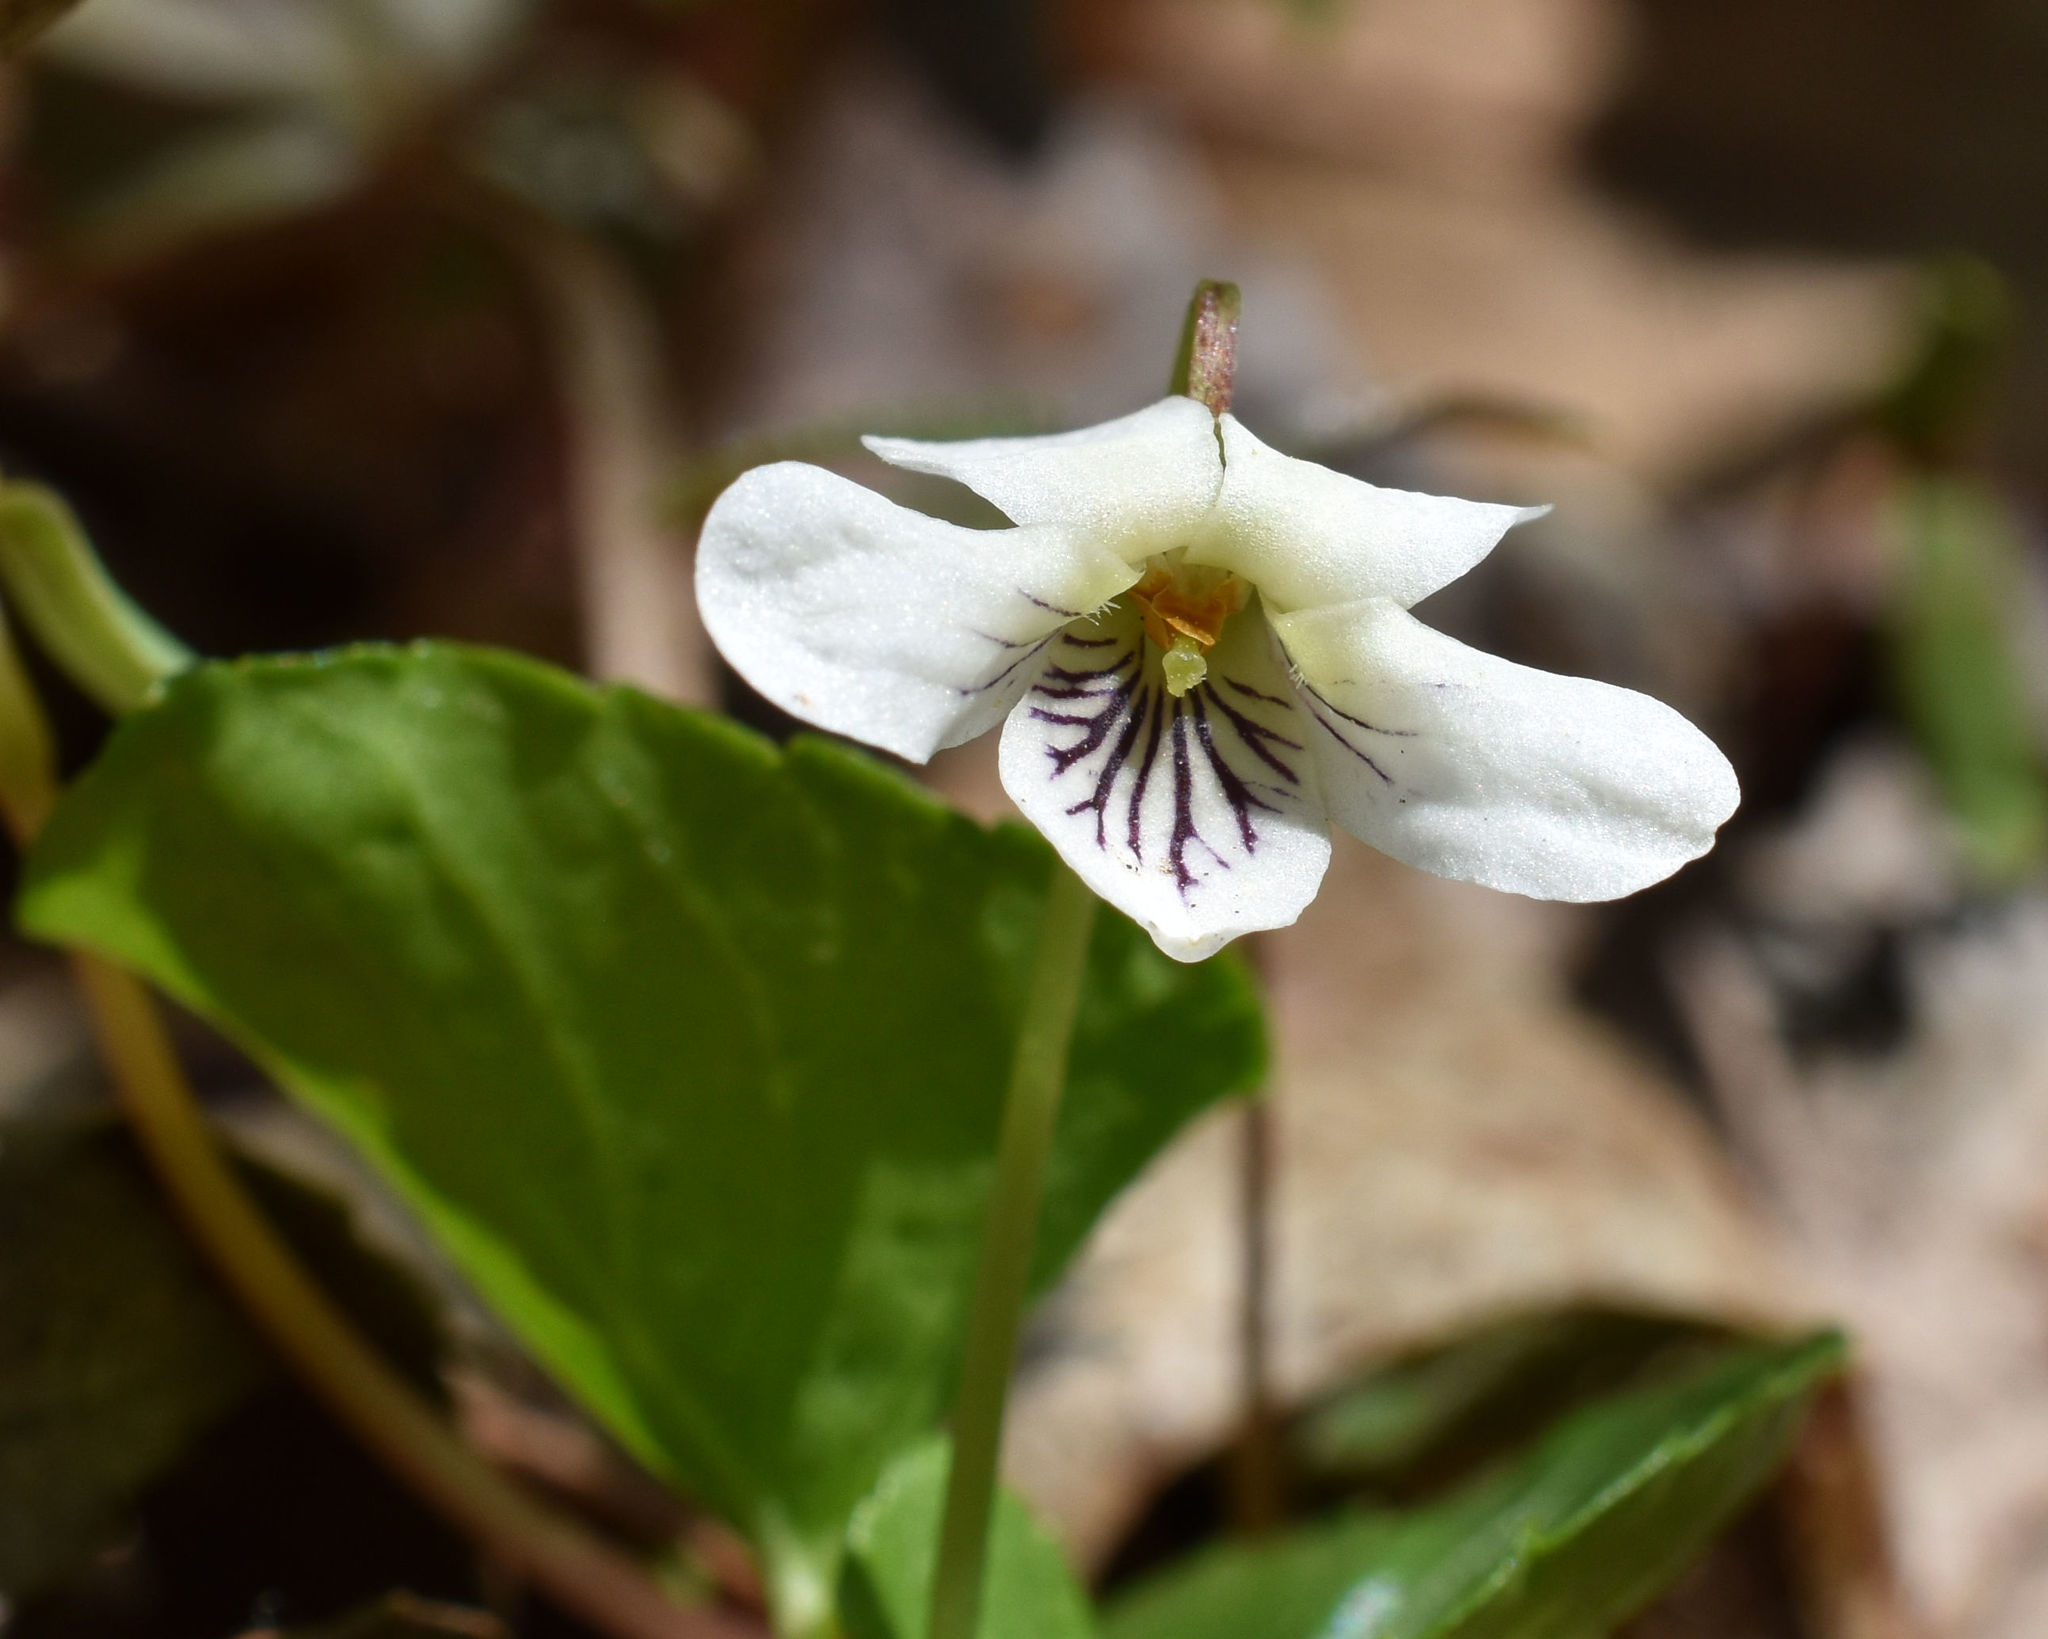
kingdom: Plantae
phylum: Tracheophyta
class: Magnoliopsida
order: Malpighiales
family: Violaceae
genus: Viola
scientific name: Viola blanda
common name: Sweet white violet
